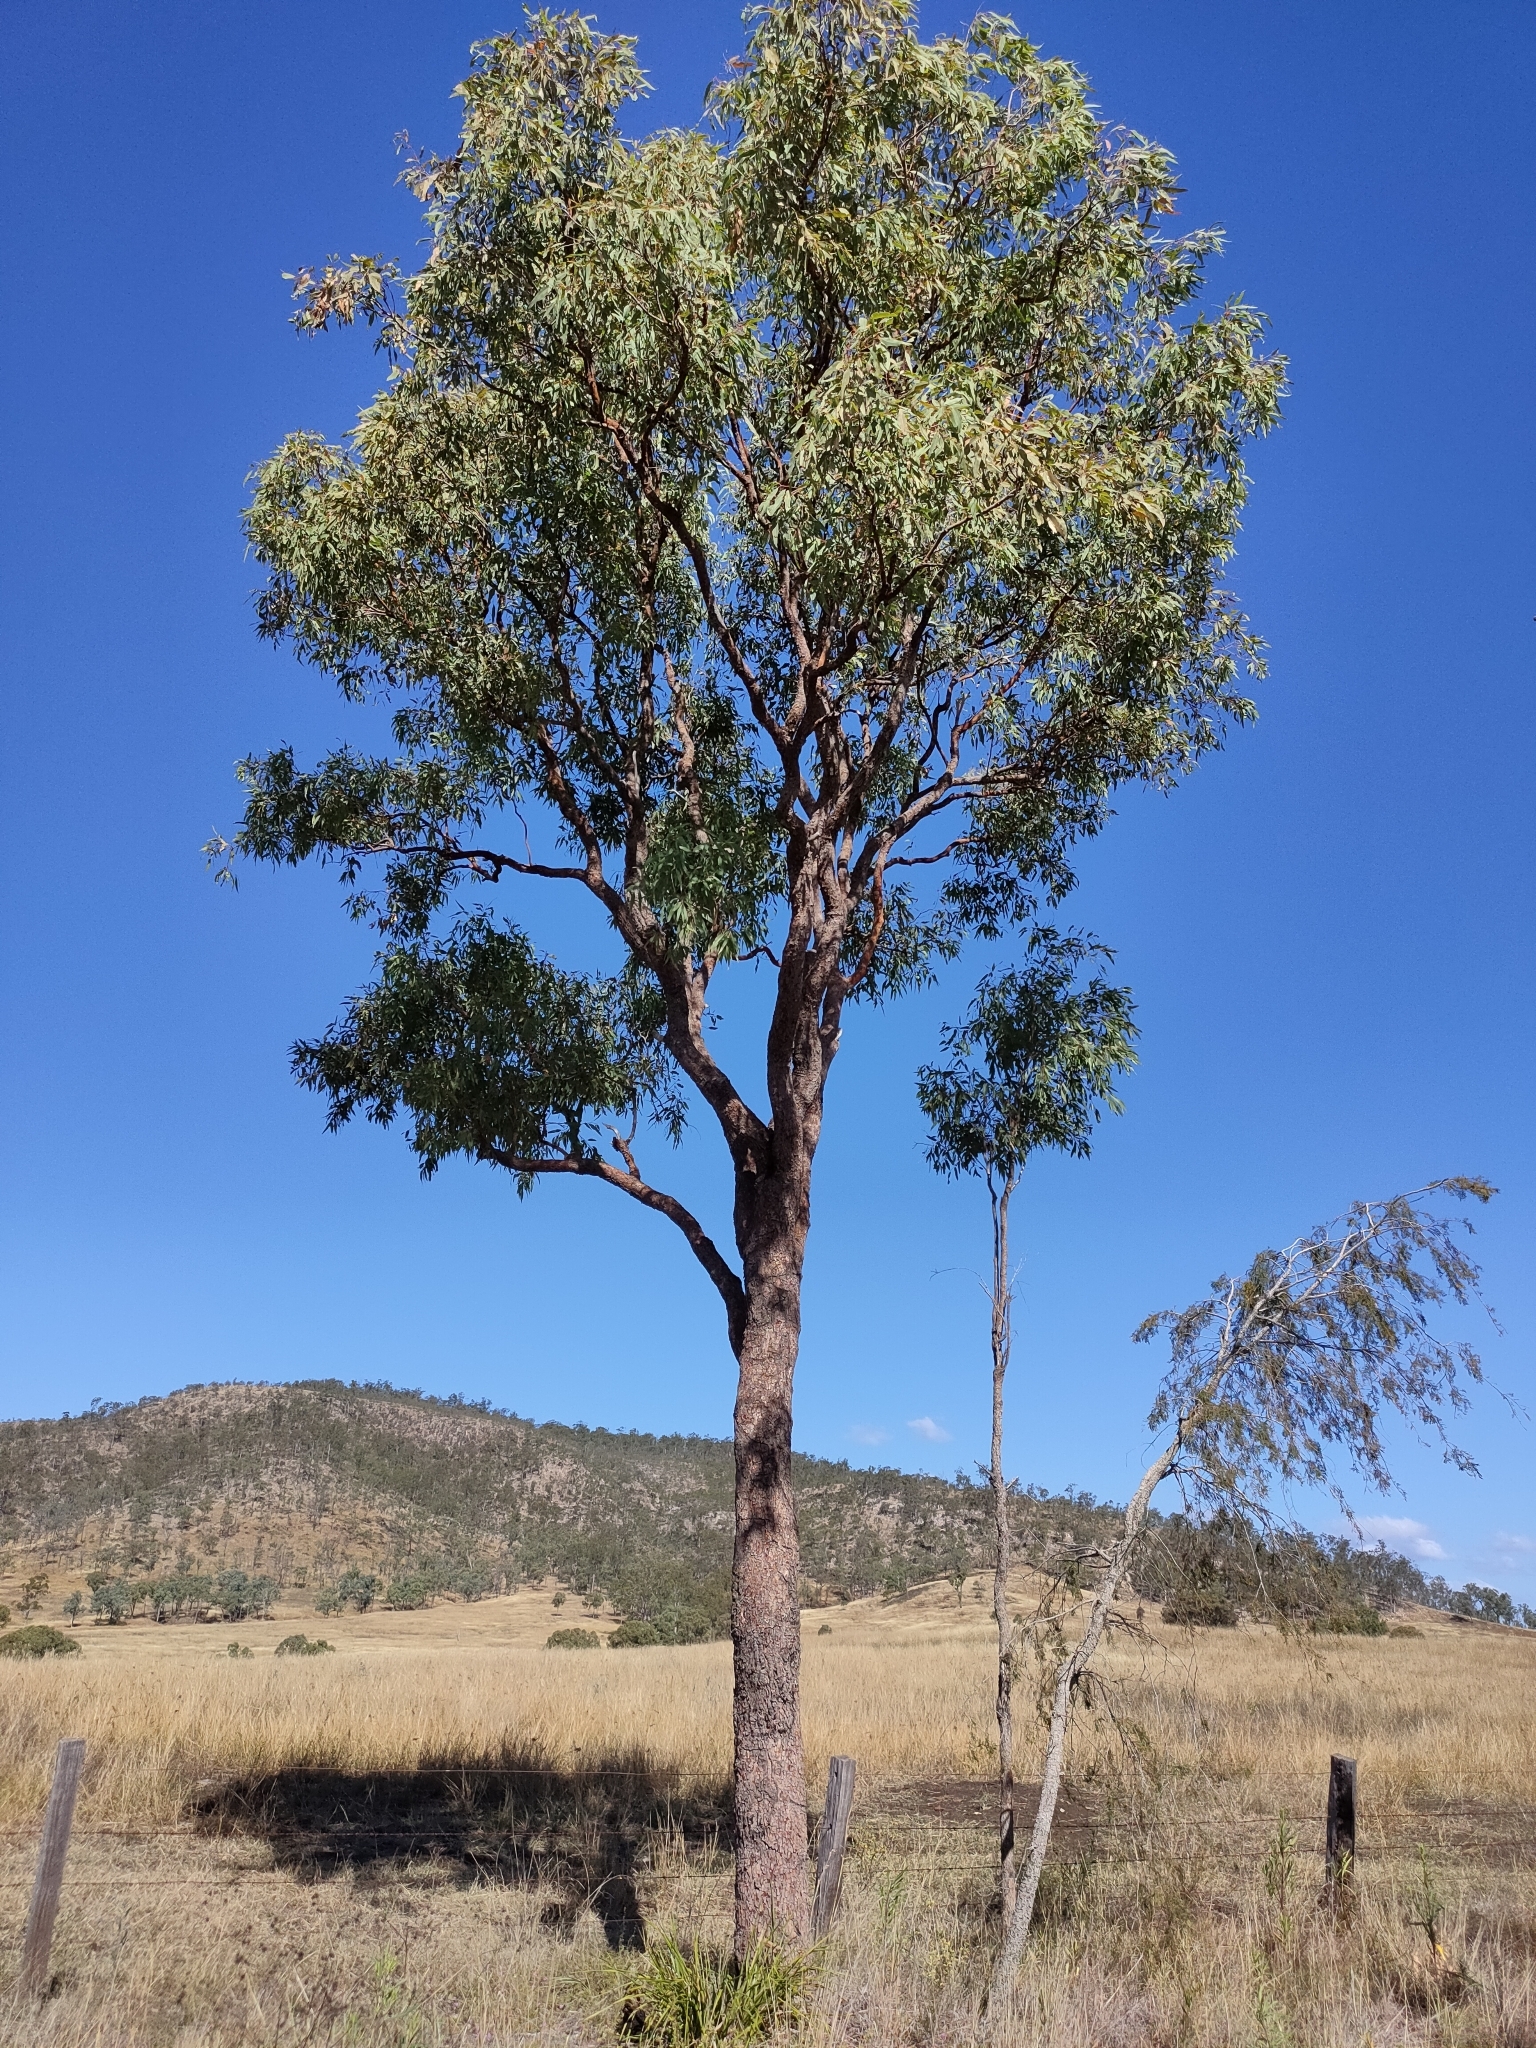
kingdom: Plantae
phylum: Tracheophyta
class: Magnoliopsida
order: Myrtales
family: Myrtaceae
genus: Corymbia
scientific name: Corymbia erythrophloia
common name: Red bloodwood
